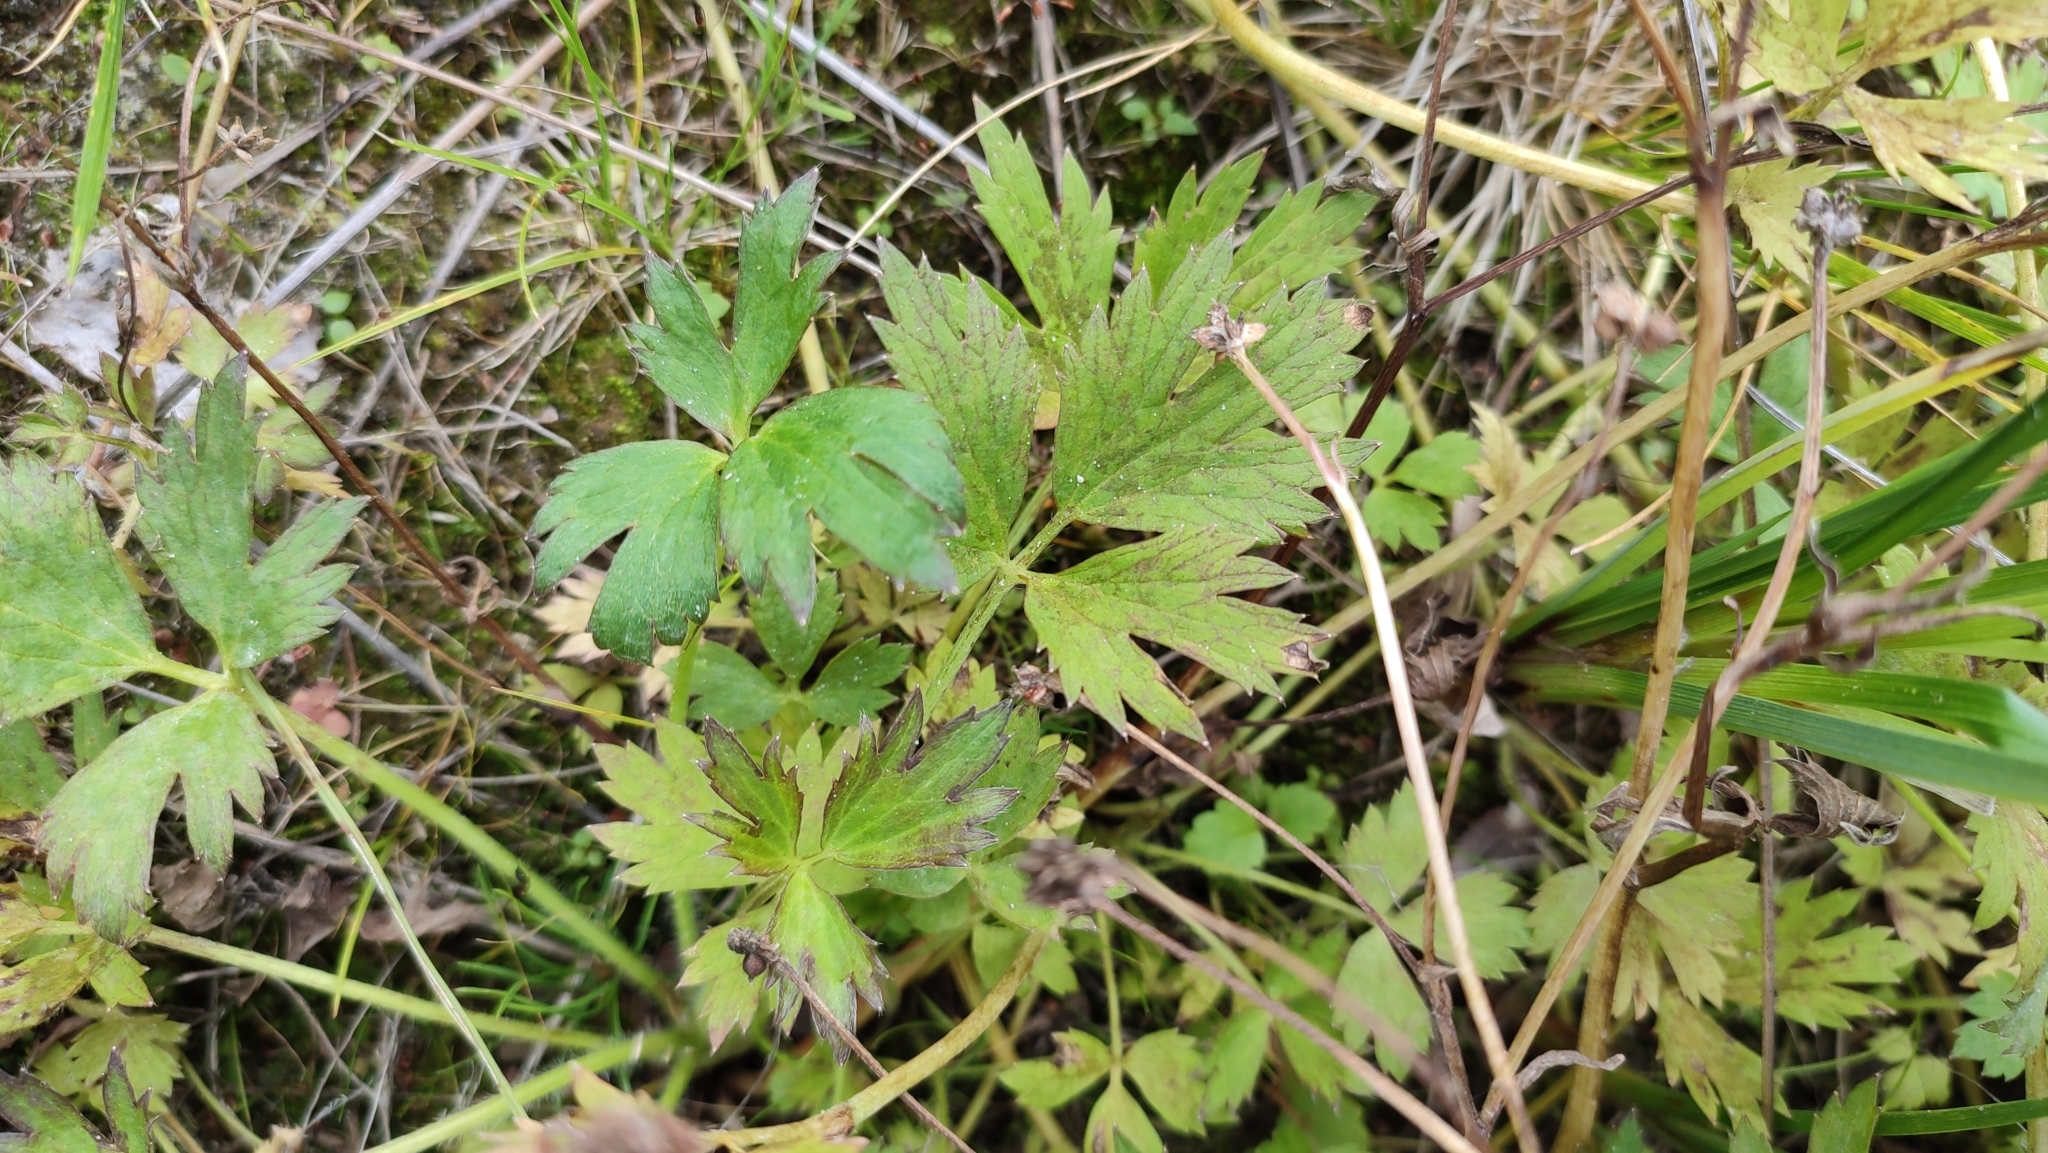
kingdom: Plantae
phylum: Tracheophyta
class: Magnoliopsida
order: Ranunculales
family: Ranunculaceae
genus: Ranunculus
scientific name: Ranunculus repens
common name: Creeping buttercup
